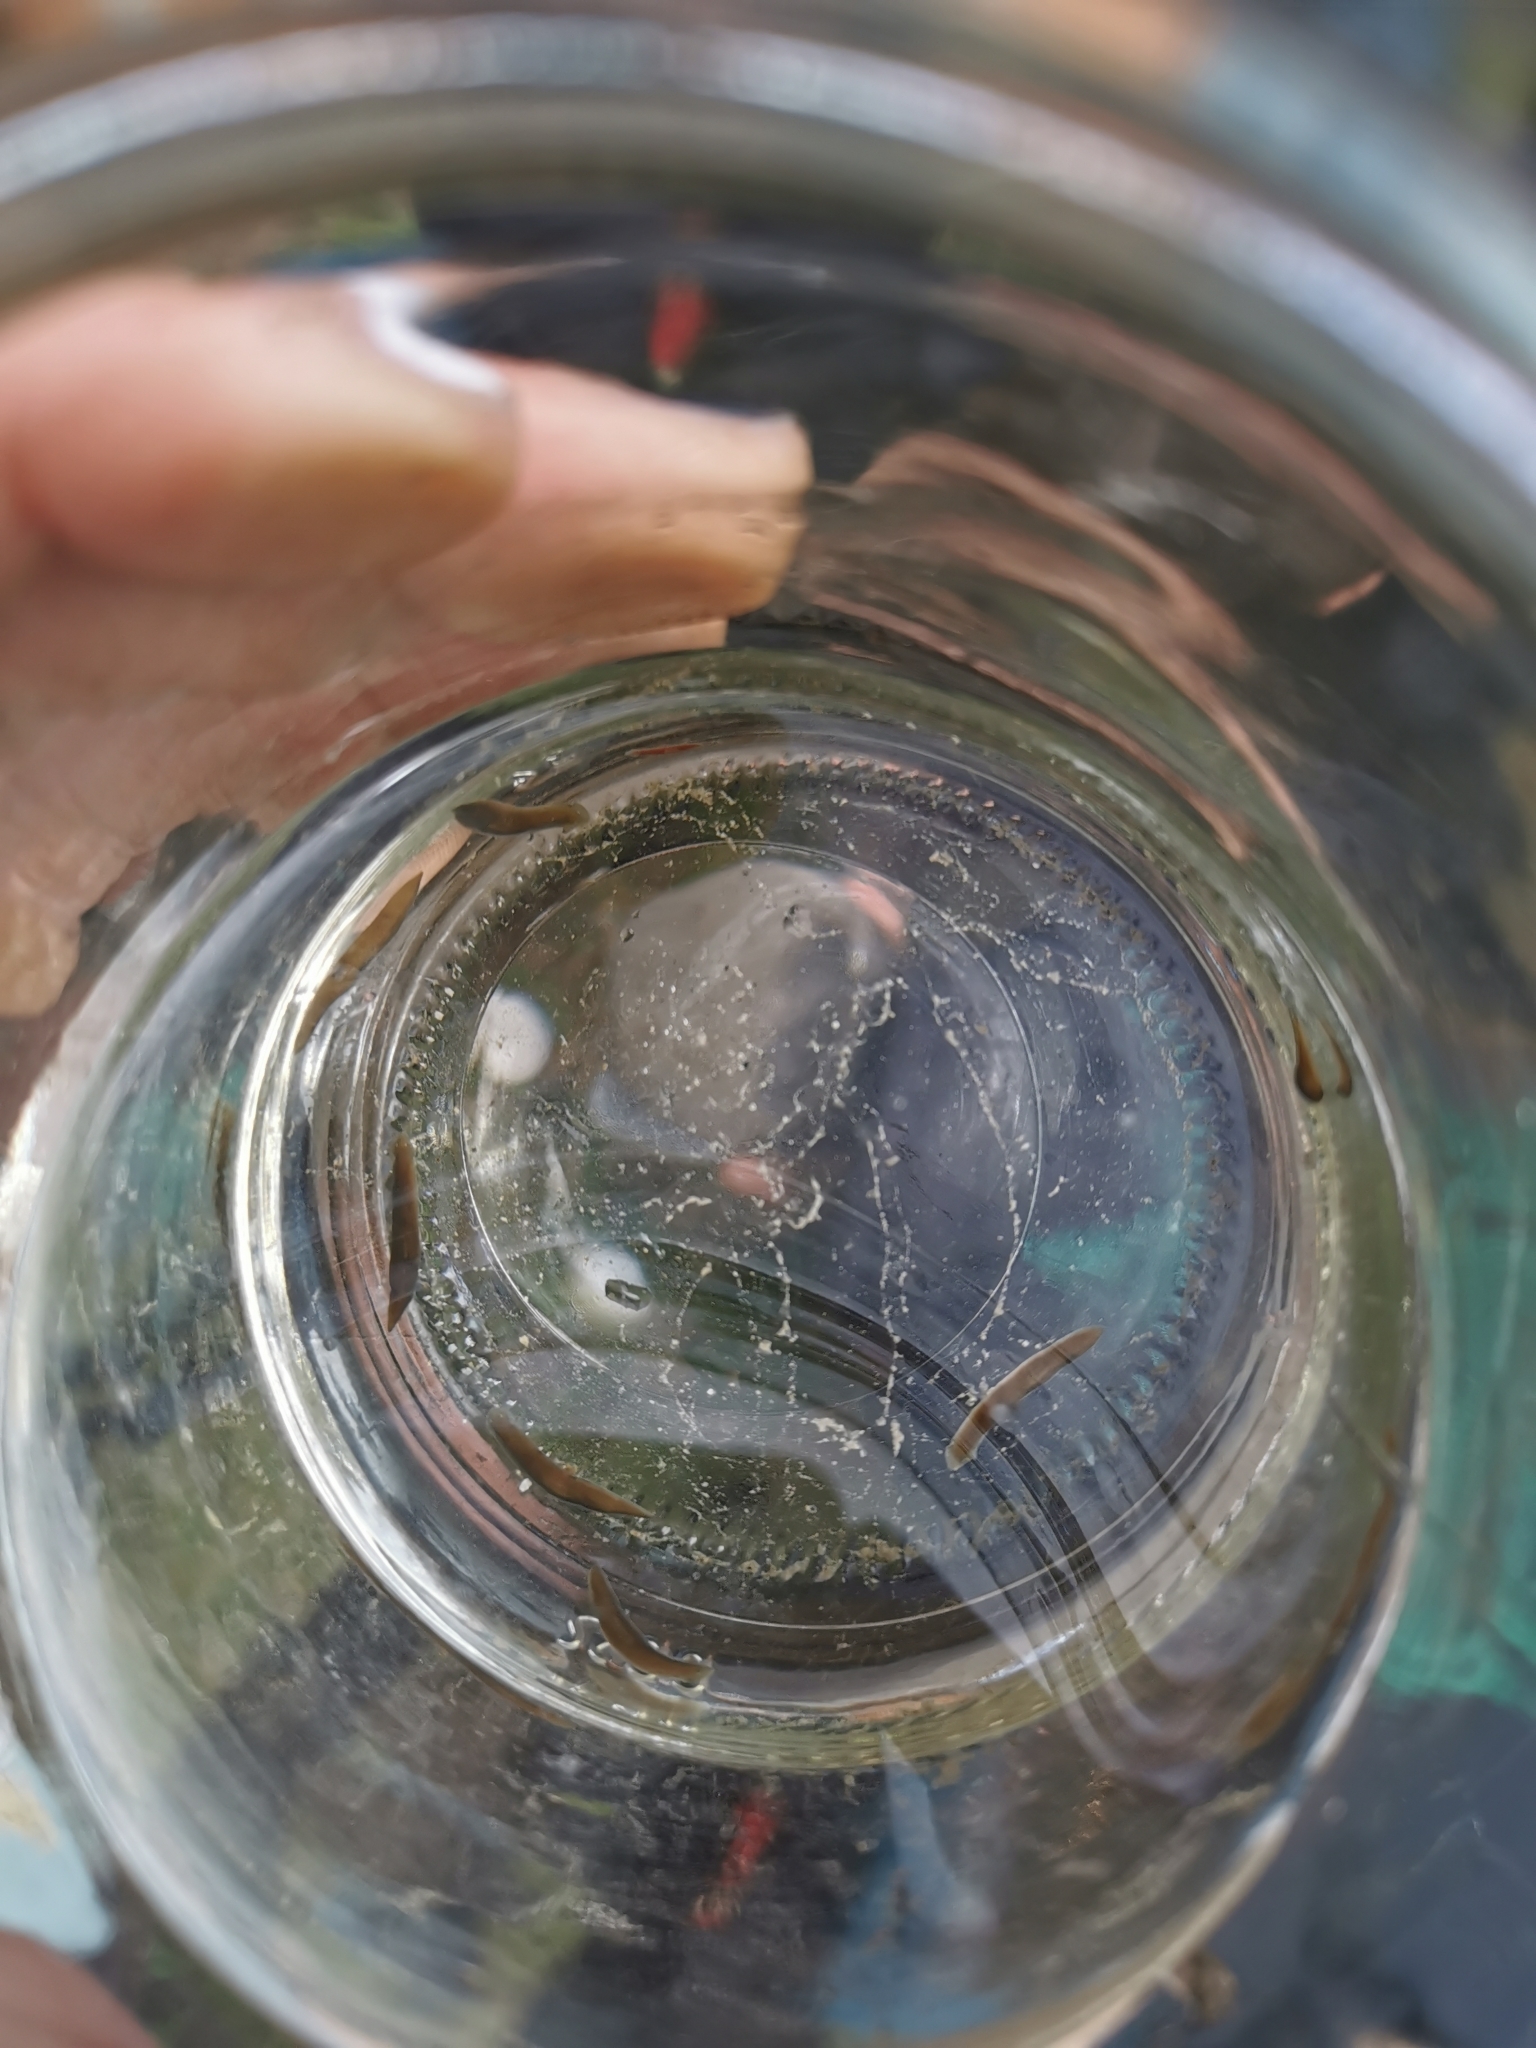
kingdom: Animalia
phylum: Platyhelminthes
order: Tricladida
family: Dugesiidae
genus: Dugesia
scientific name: Dugesia gonocephala
